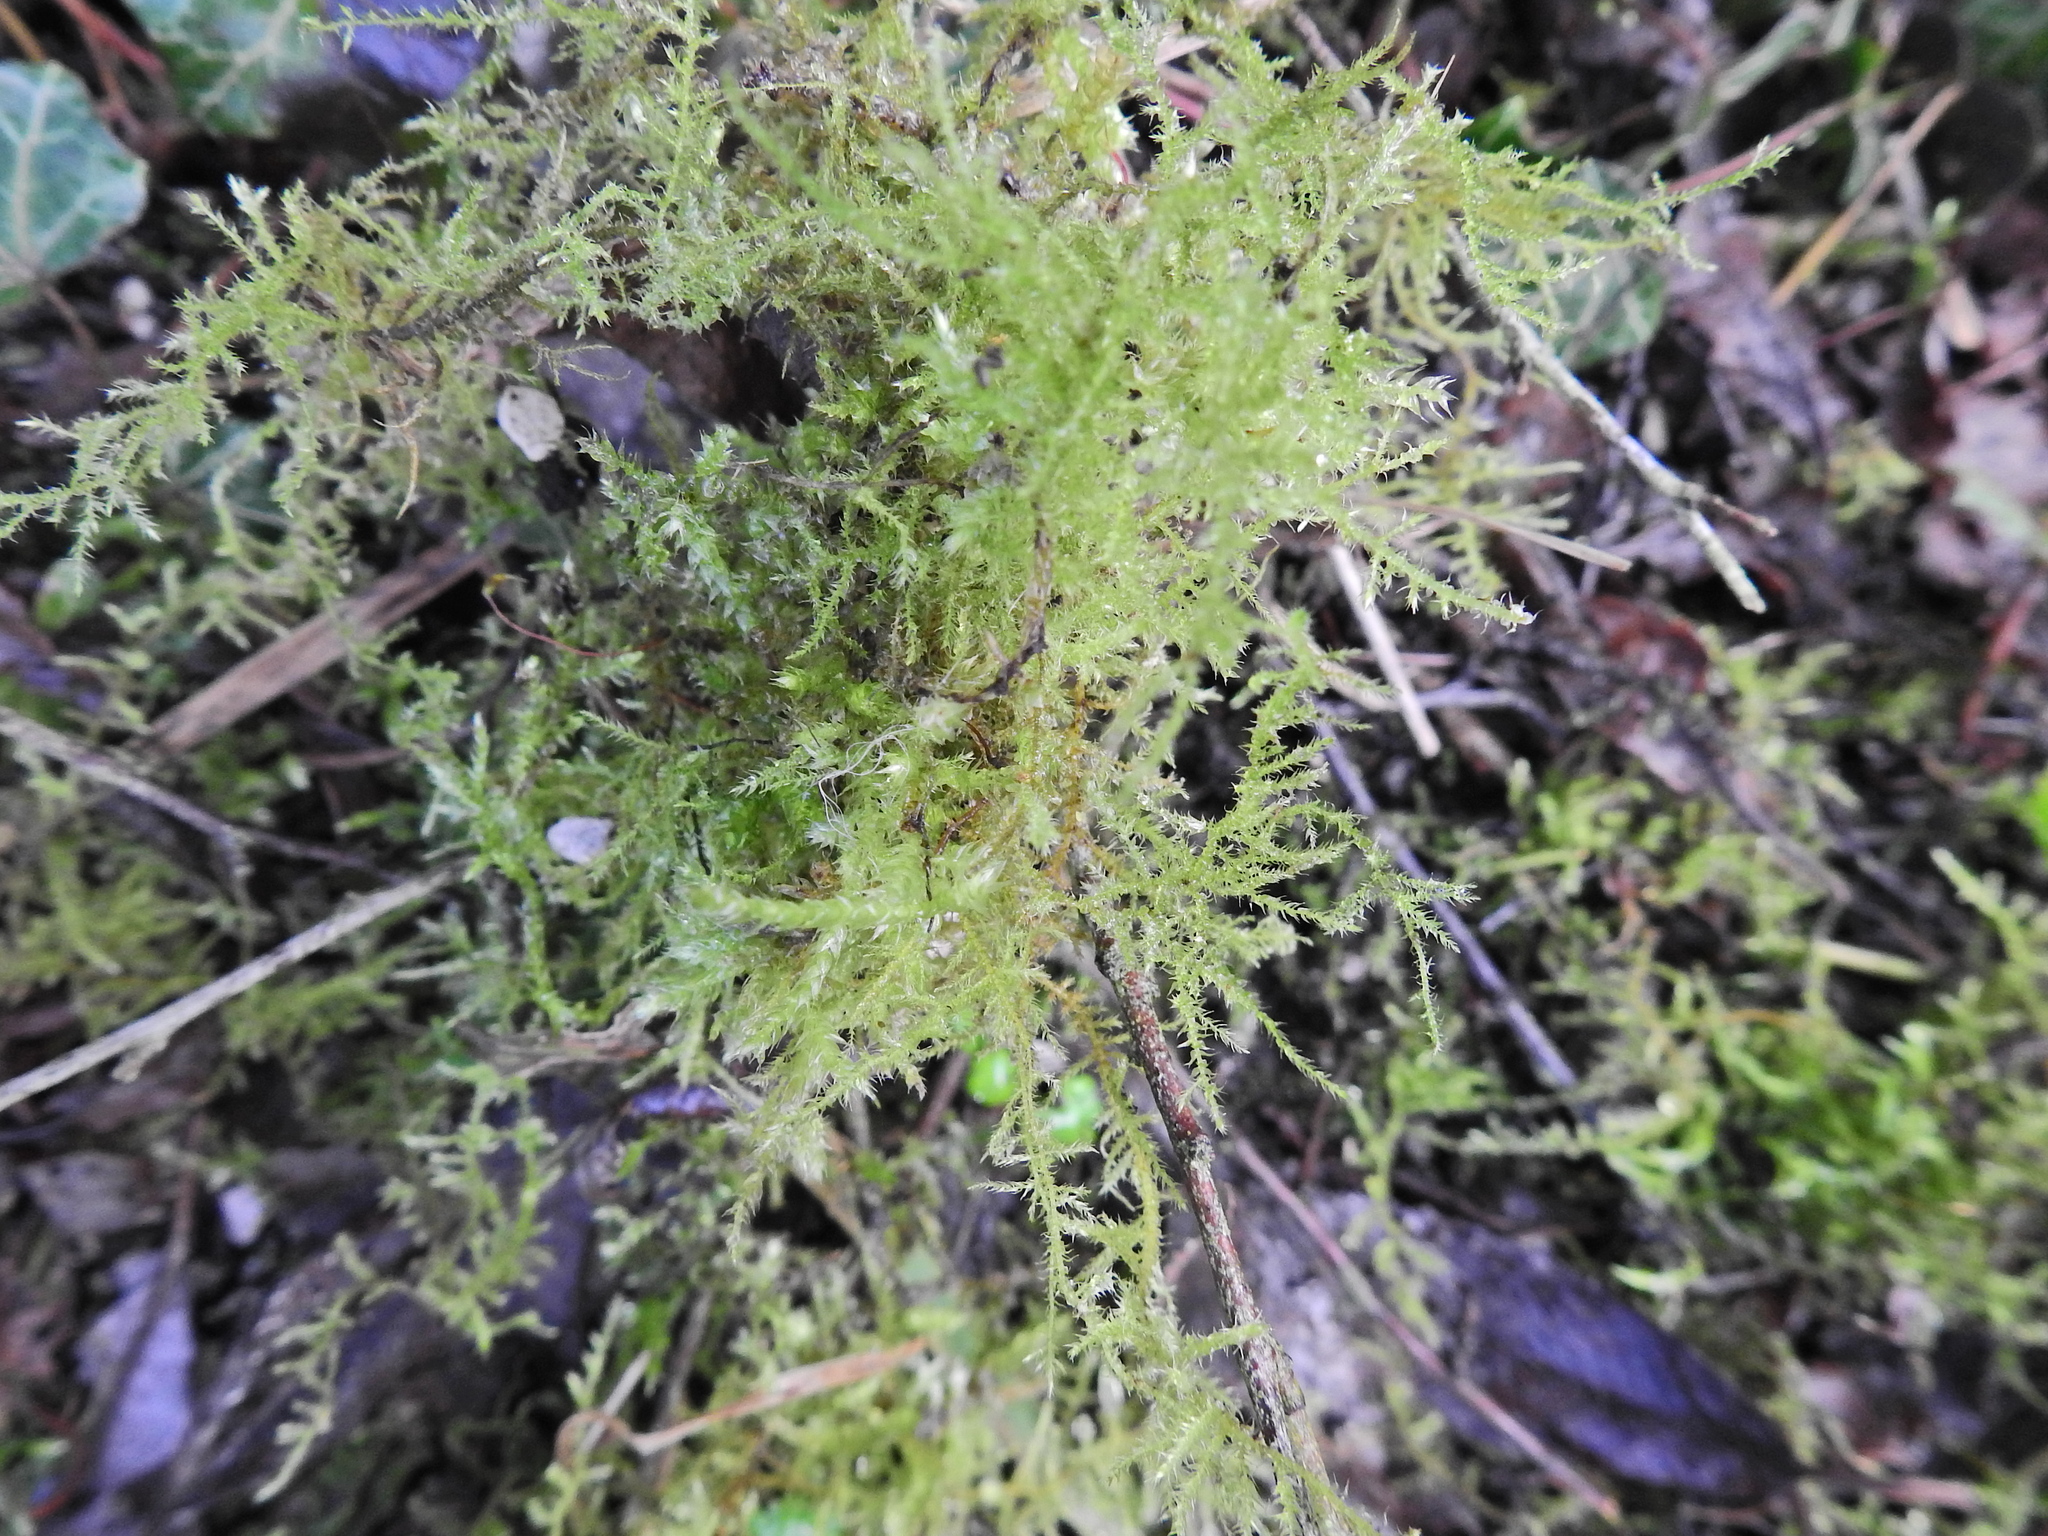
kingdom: Plantae
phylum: Bryophyta
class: Bryopsida
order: Hypnales
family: Brachytheciaceae
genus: Kindbergia
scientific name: Kindbergia praelonga
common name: Slender beaked moss
